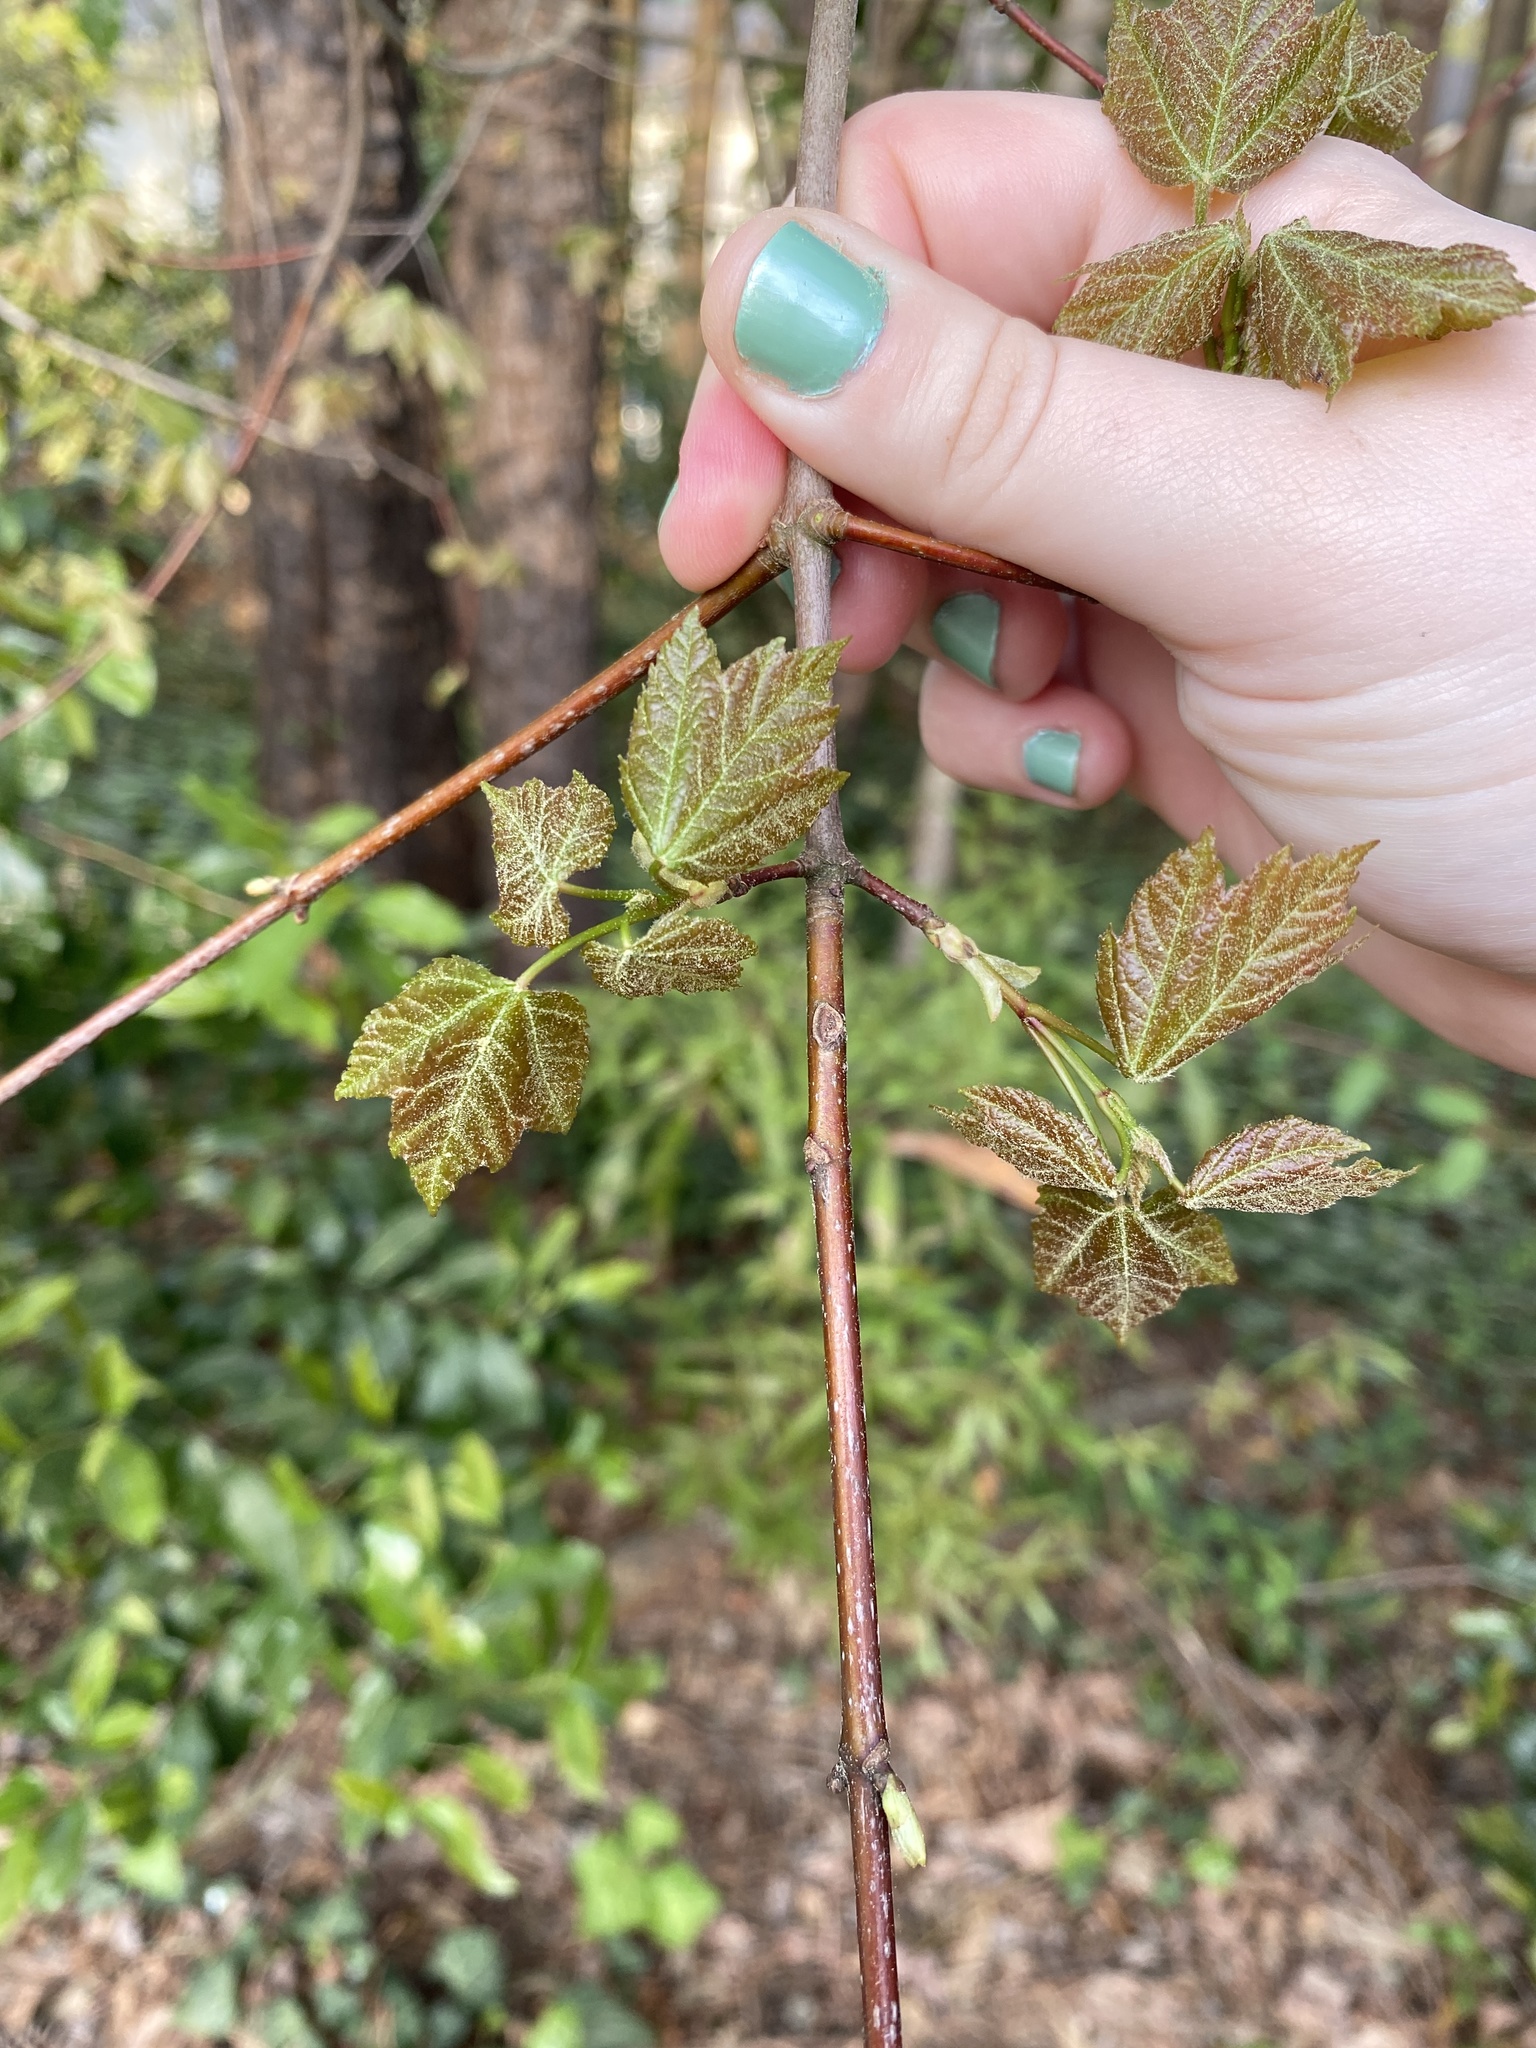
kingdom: Plantae
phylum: Tracheophyta
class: Magnoliopsida
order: Sapindales
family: Sapindaceae
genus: Acer
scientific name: Acer rubrum
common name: Red maple
